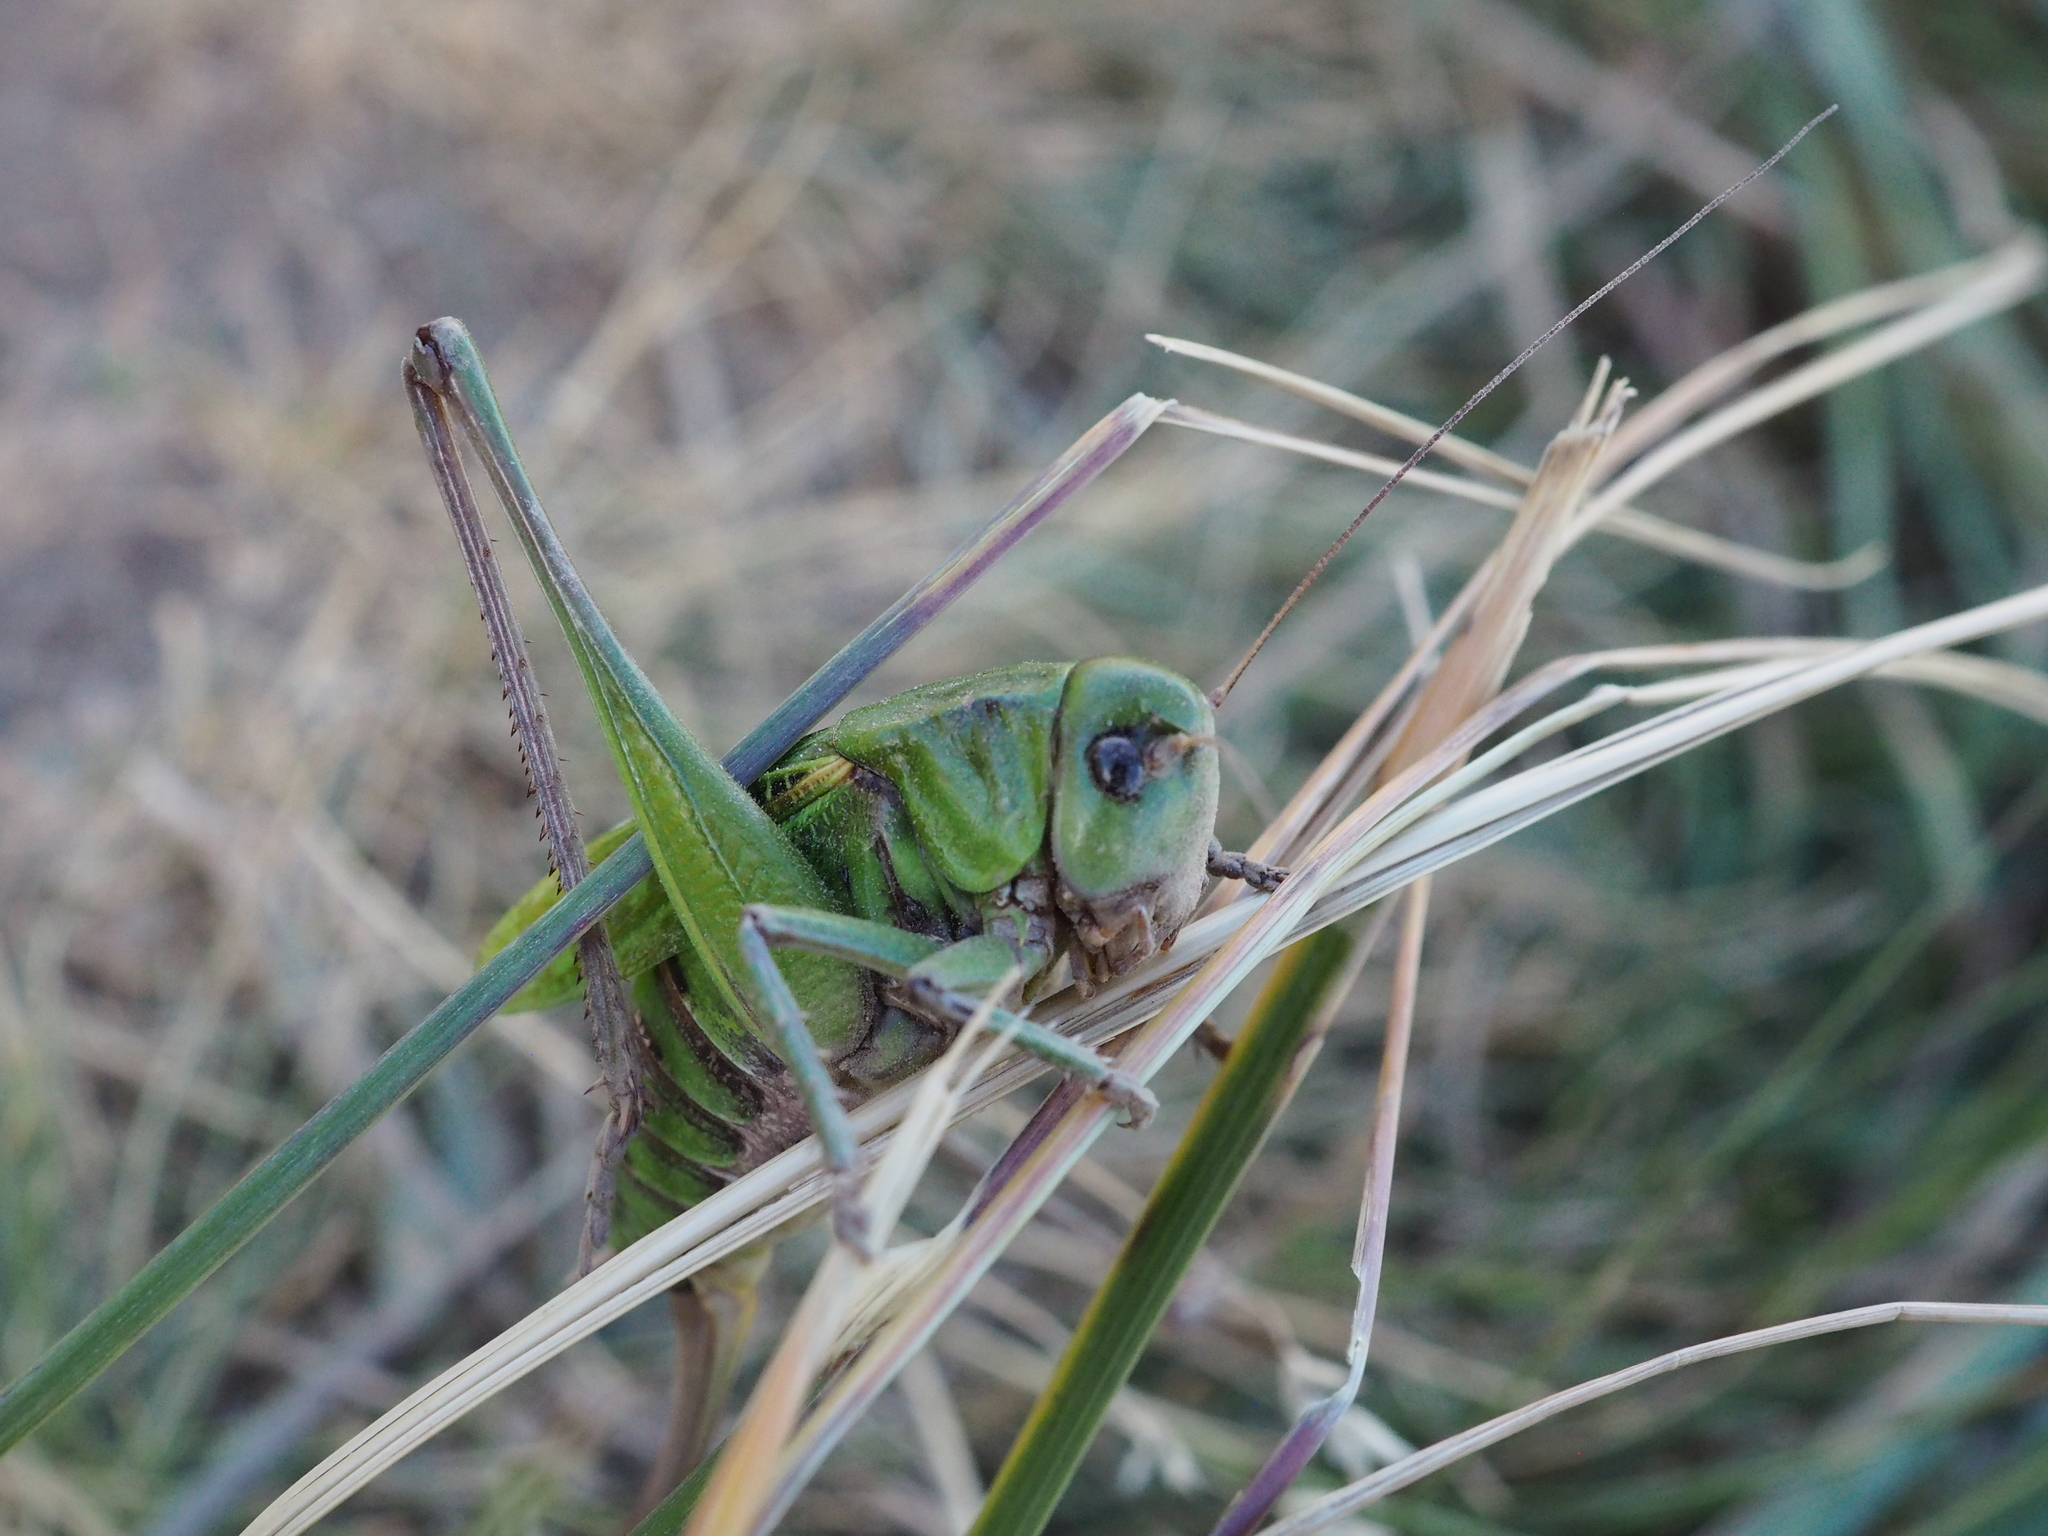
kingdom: Animalia
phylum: Arthropoda
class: Insecta
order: Orthoptera
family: Tettigoniidae
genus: Decticus
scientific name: Decticus verrucivorus
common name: Wart-biter
